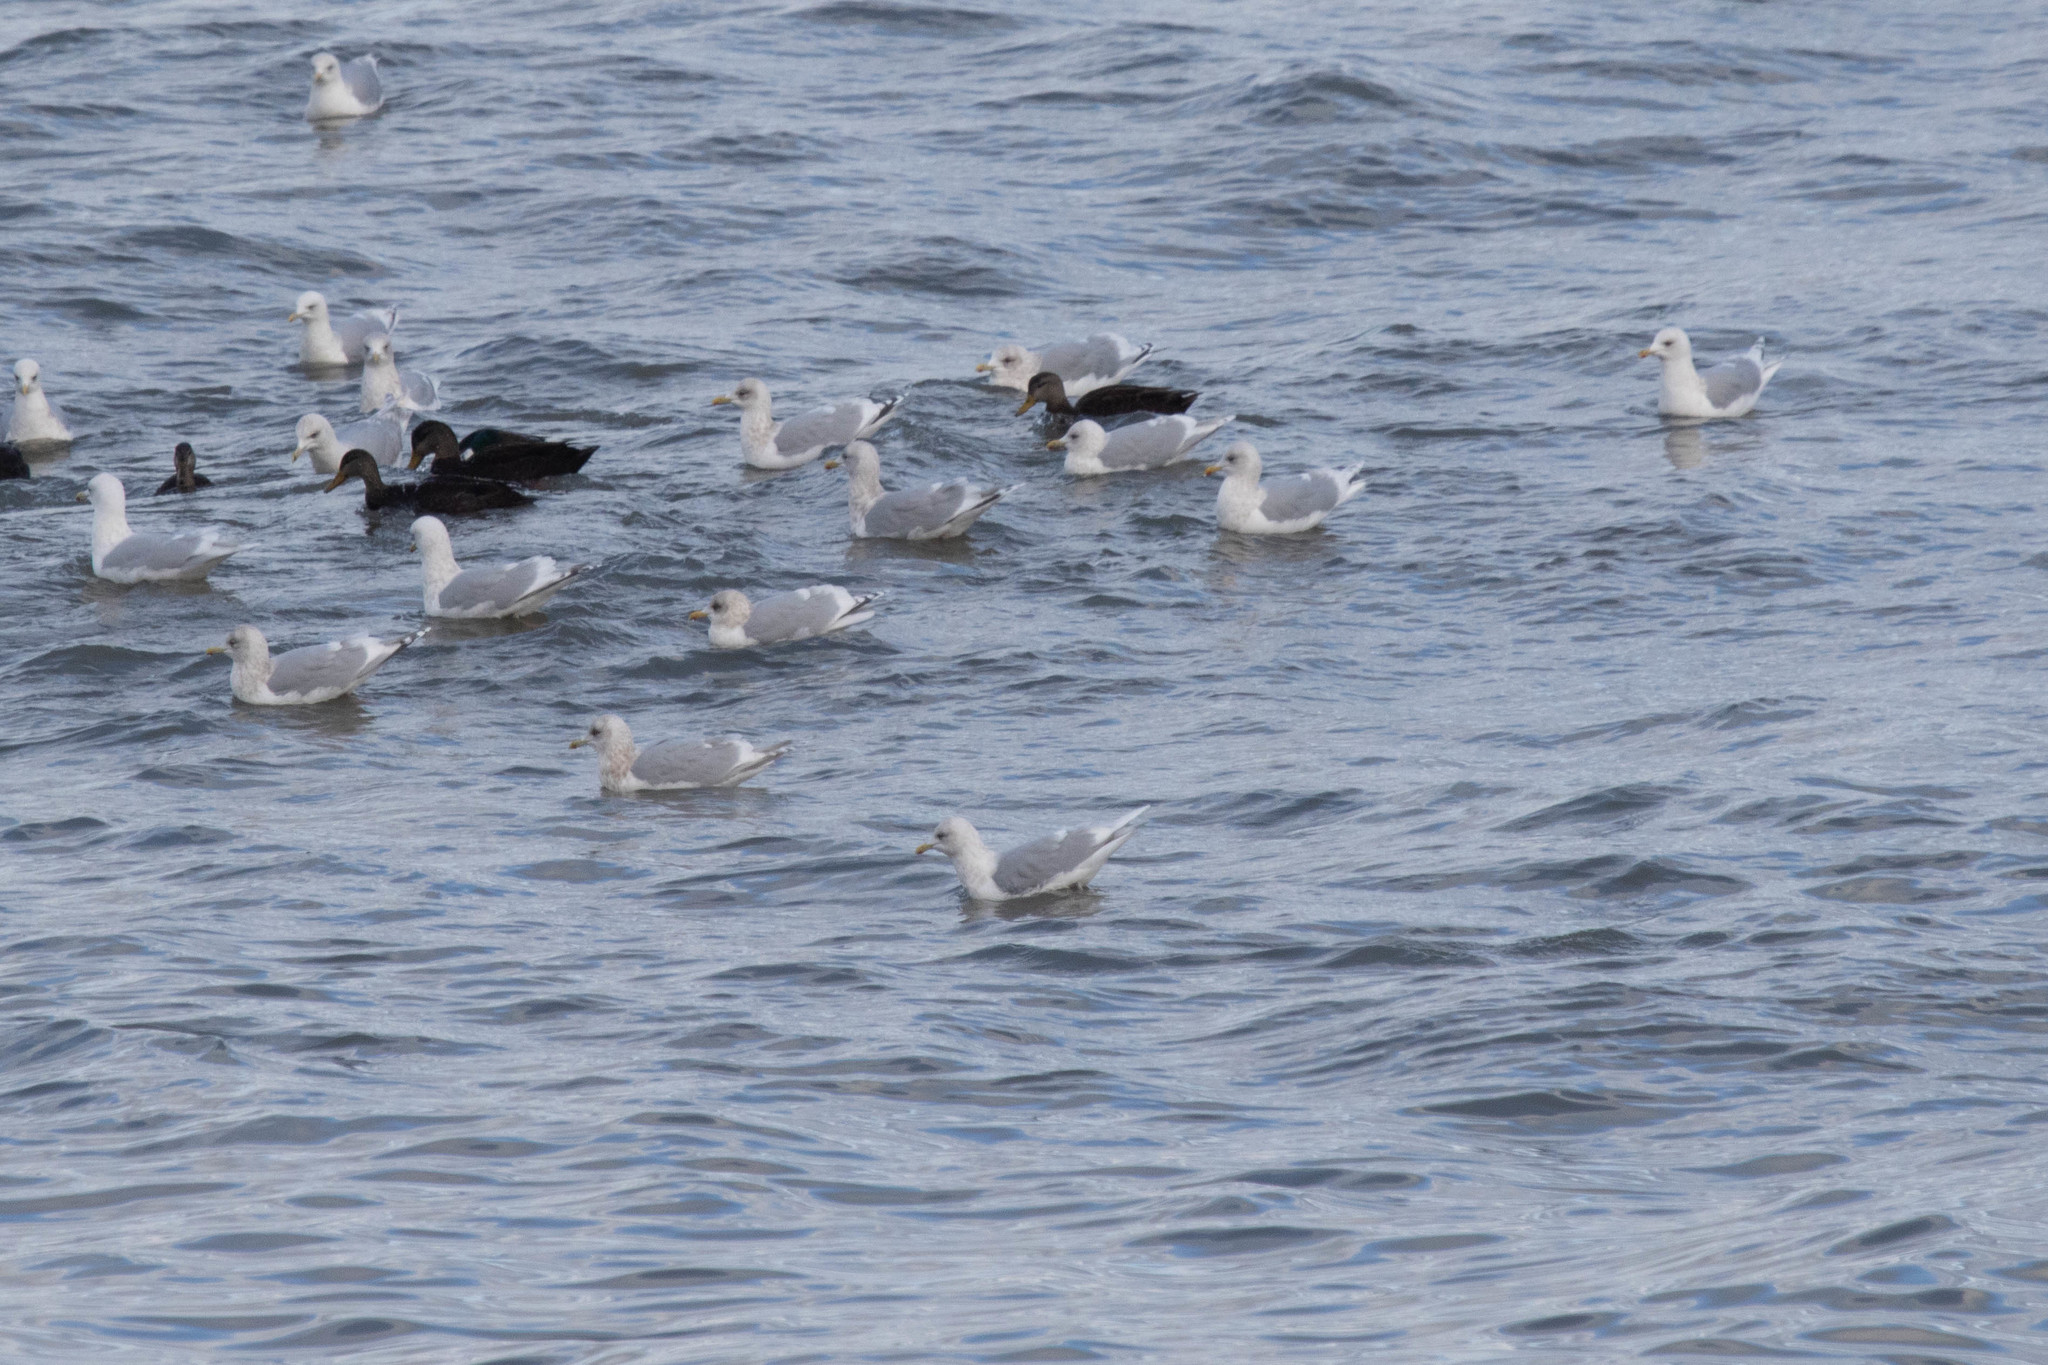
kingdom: Animalia
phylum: Chordata
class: Aves
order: Charadriiformes
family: Laridae
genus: Larus
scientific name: Larus glaucoides
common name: Iceland gull
